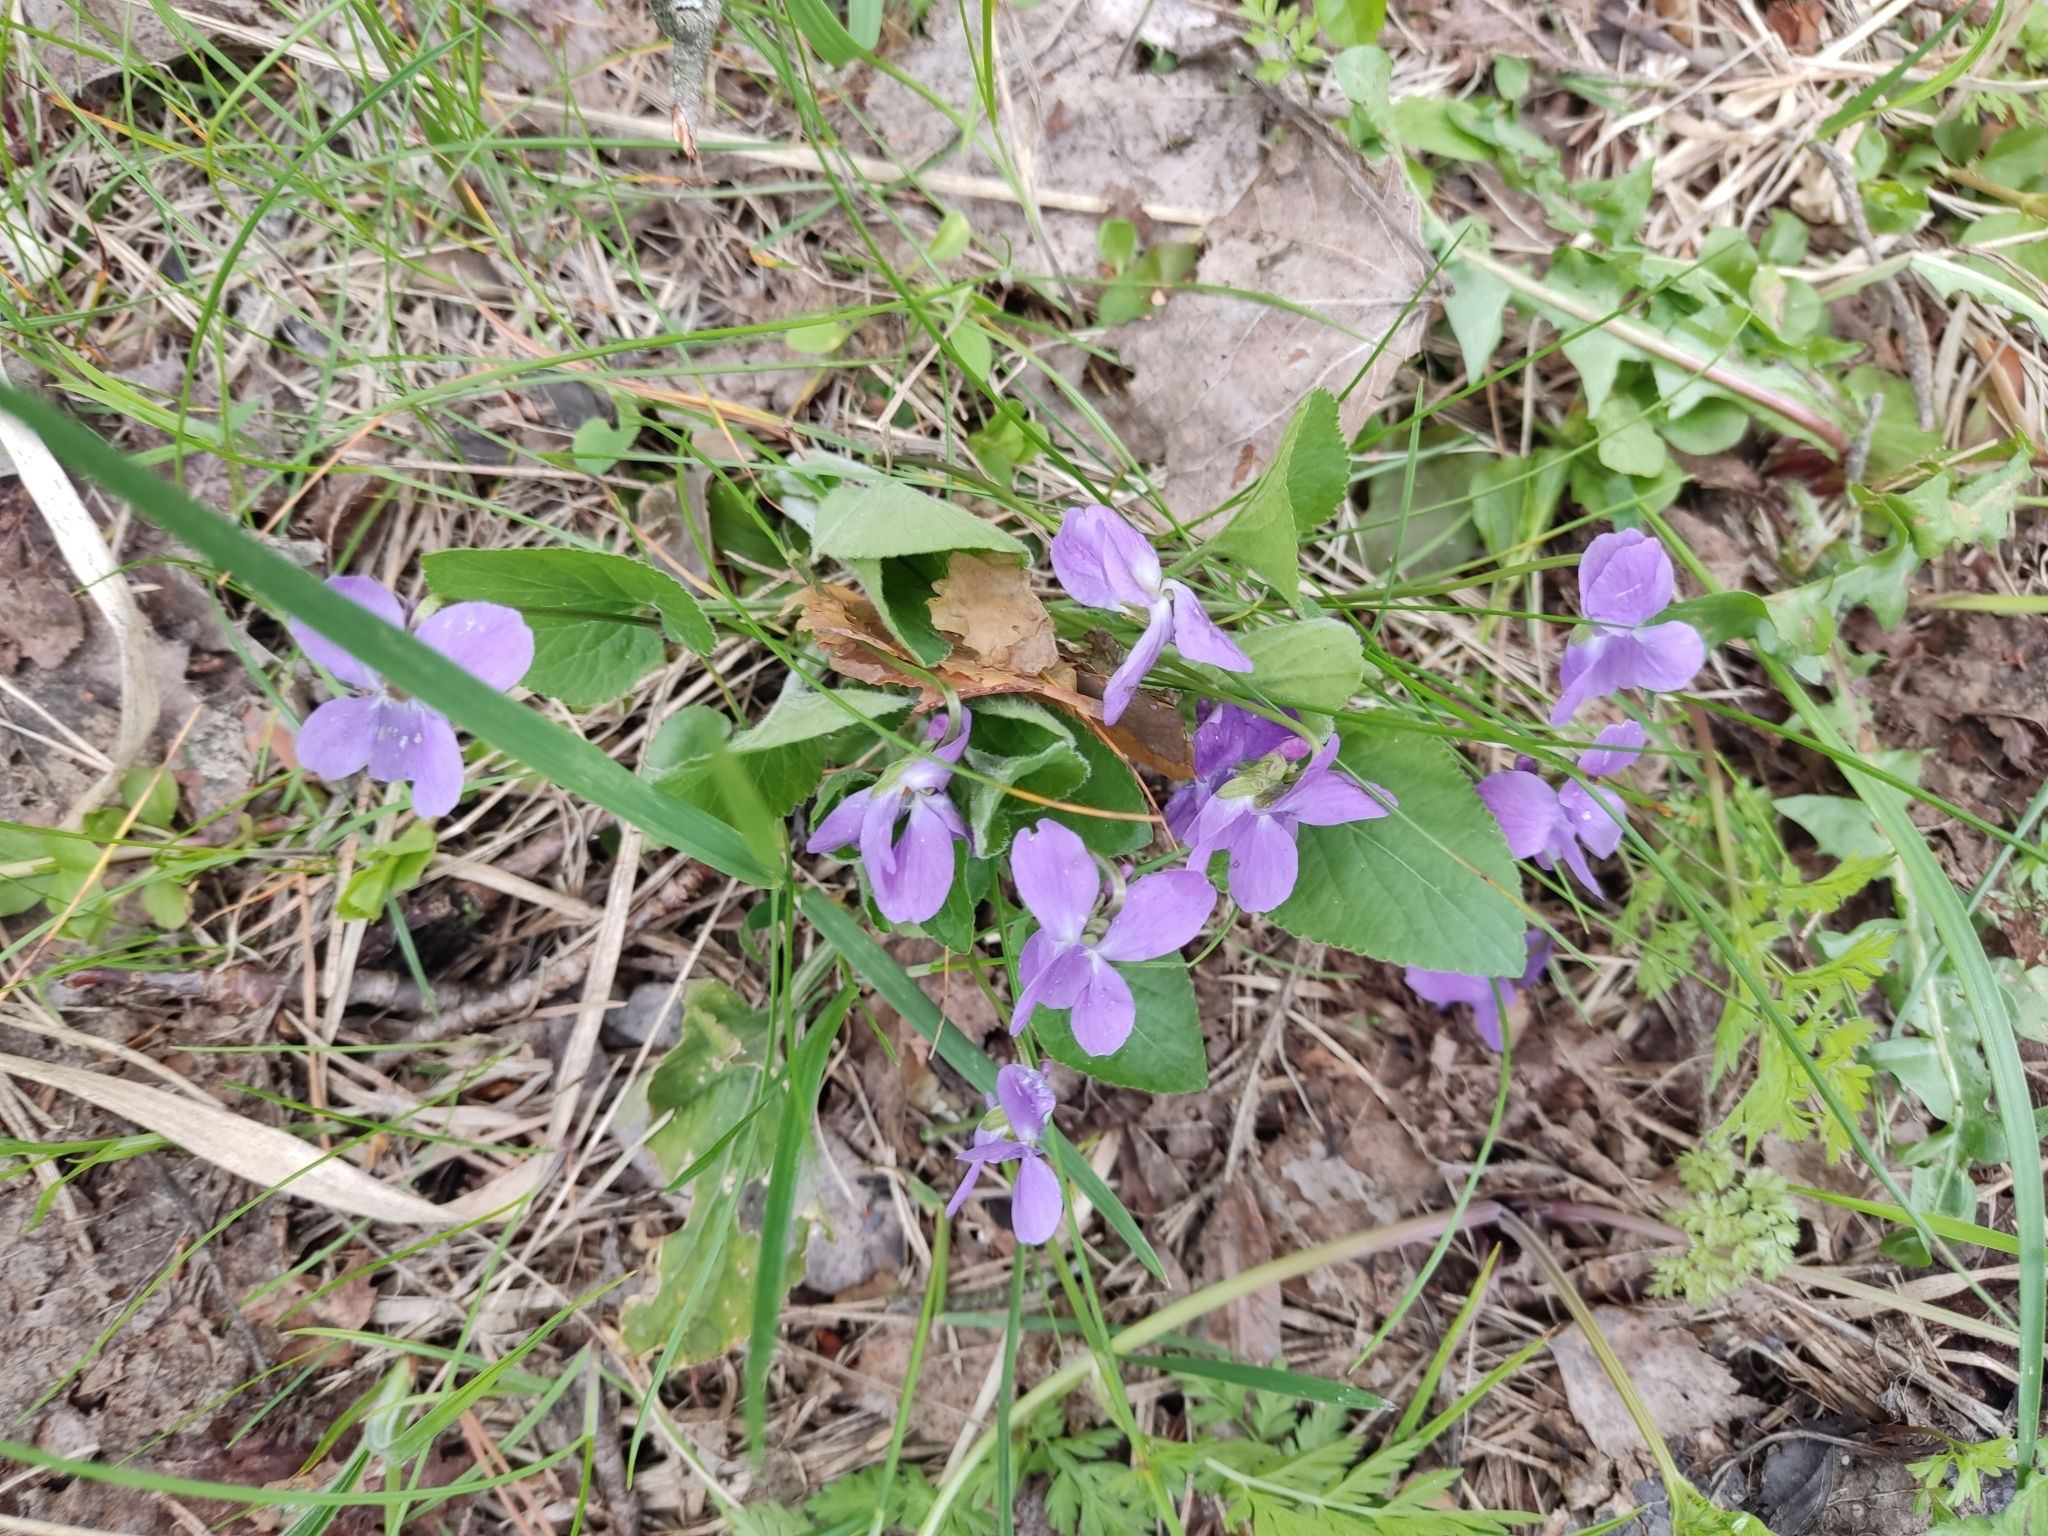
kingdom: Plantae
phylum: Tracheophyta
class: Magnoliopsida
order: Malpighiales
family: Violaceae
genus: Viola
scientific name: Viola hirta
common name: Hairy violet
